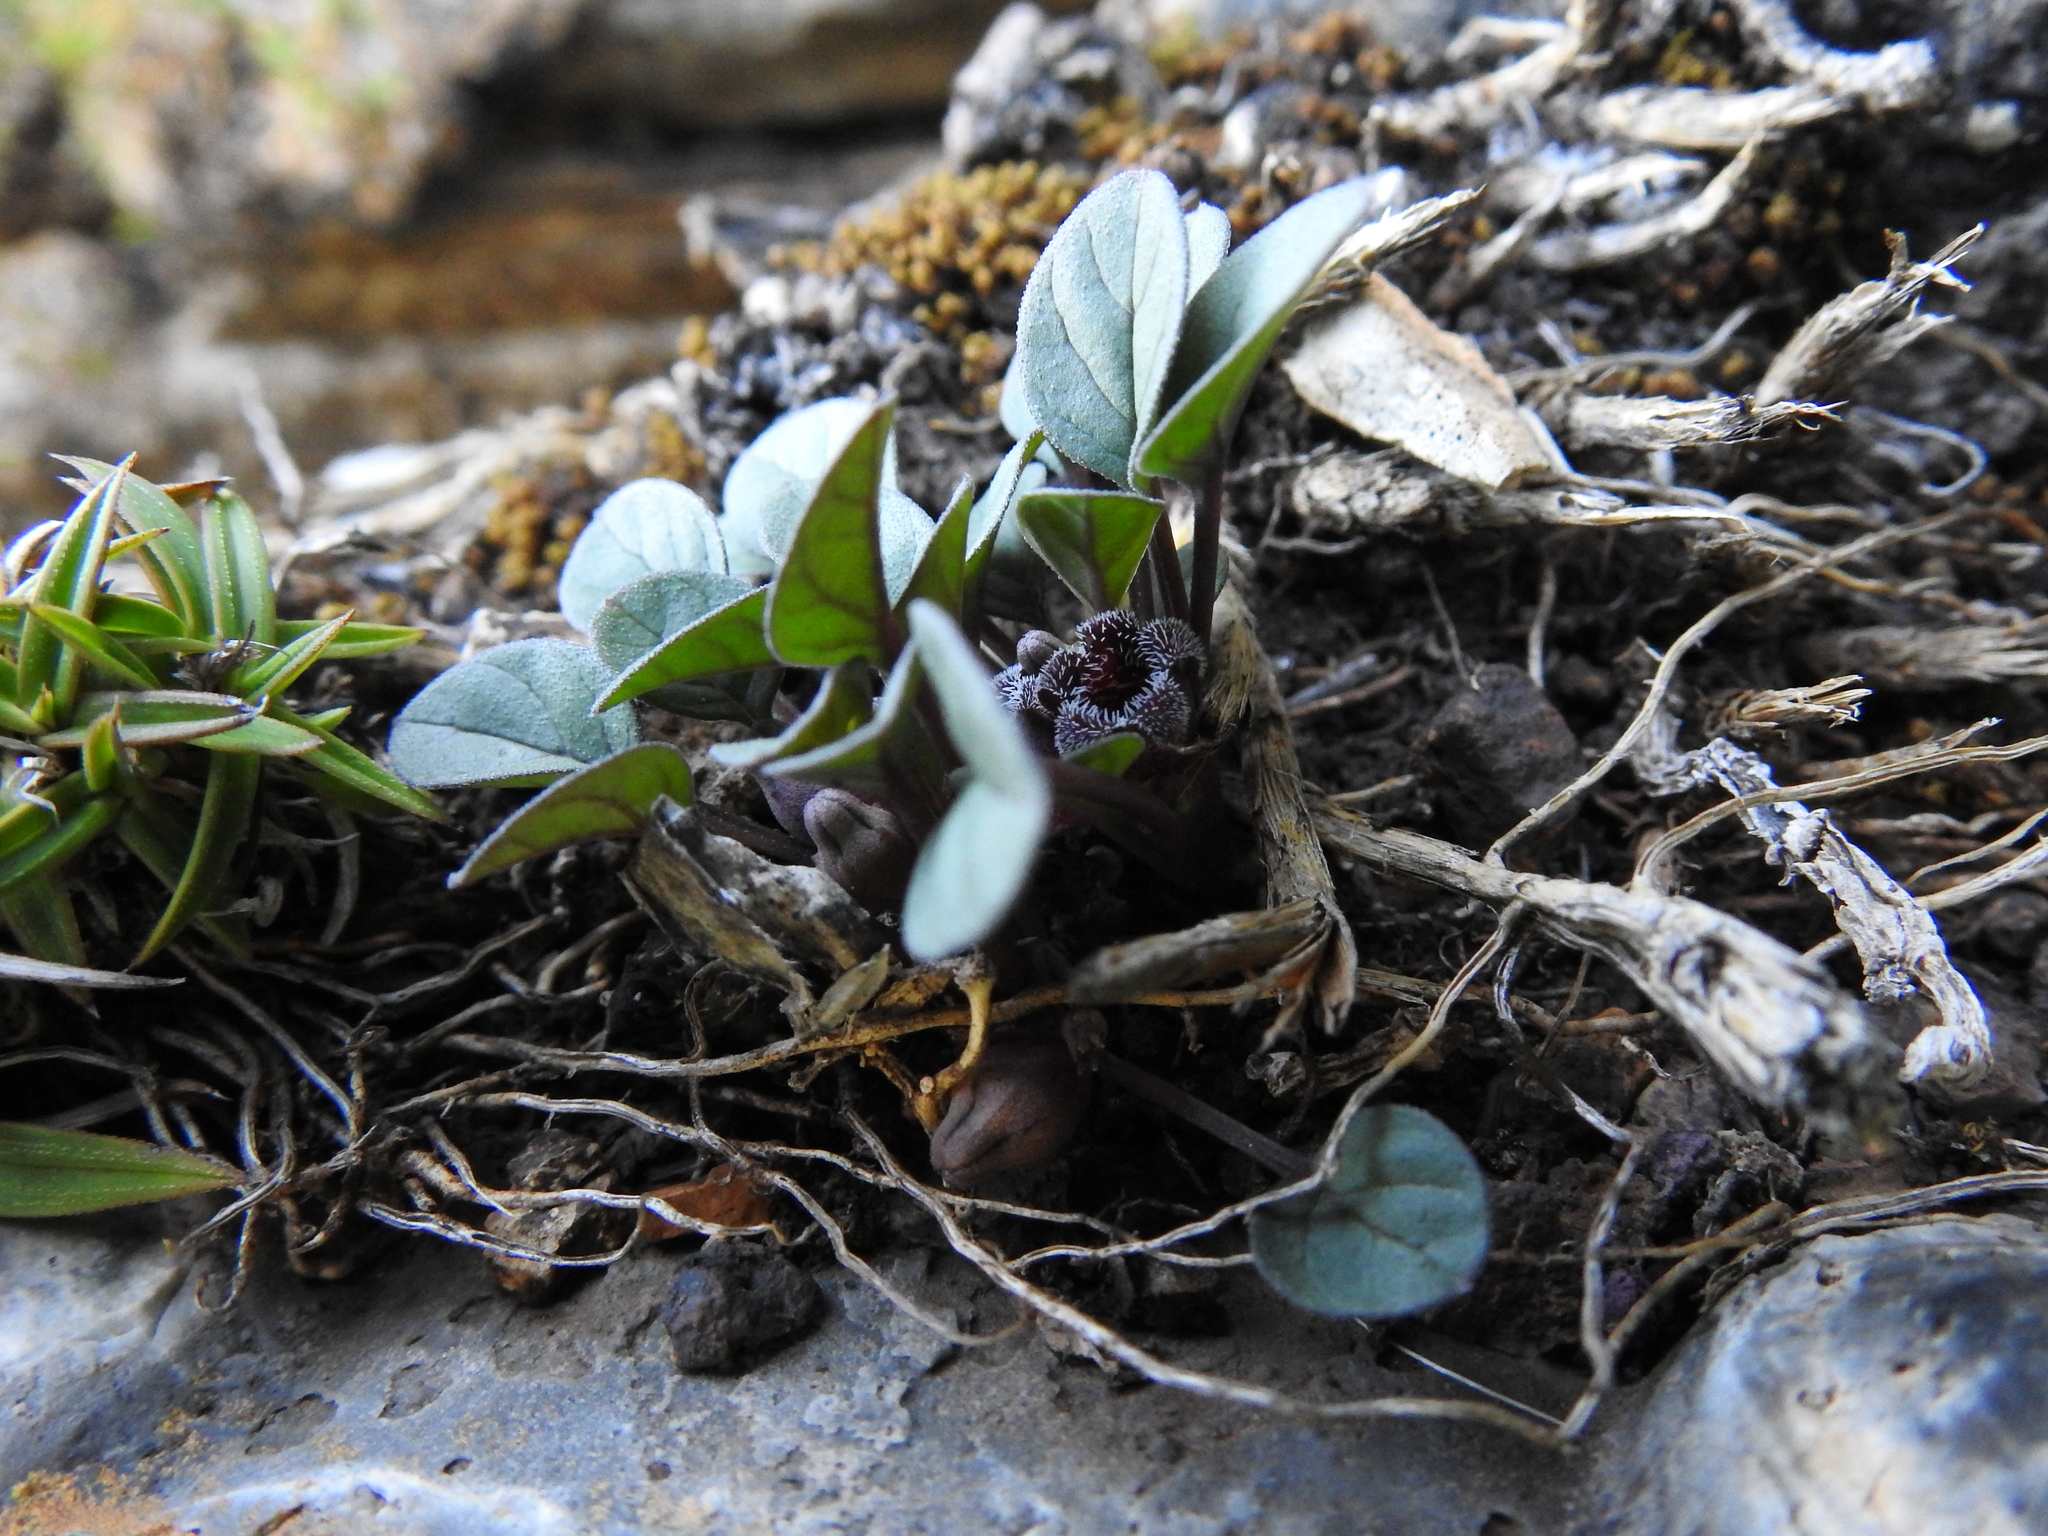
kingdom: Plantae
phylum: Tracheophyta
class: Magnoliopsida
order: Gentianales
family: Apocynaceae
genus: Ceropegia
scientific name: Ceropegia minor
